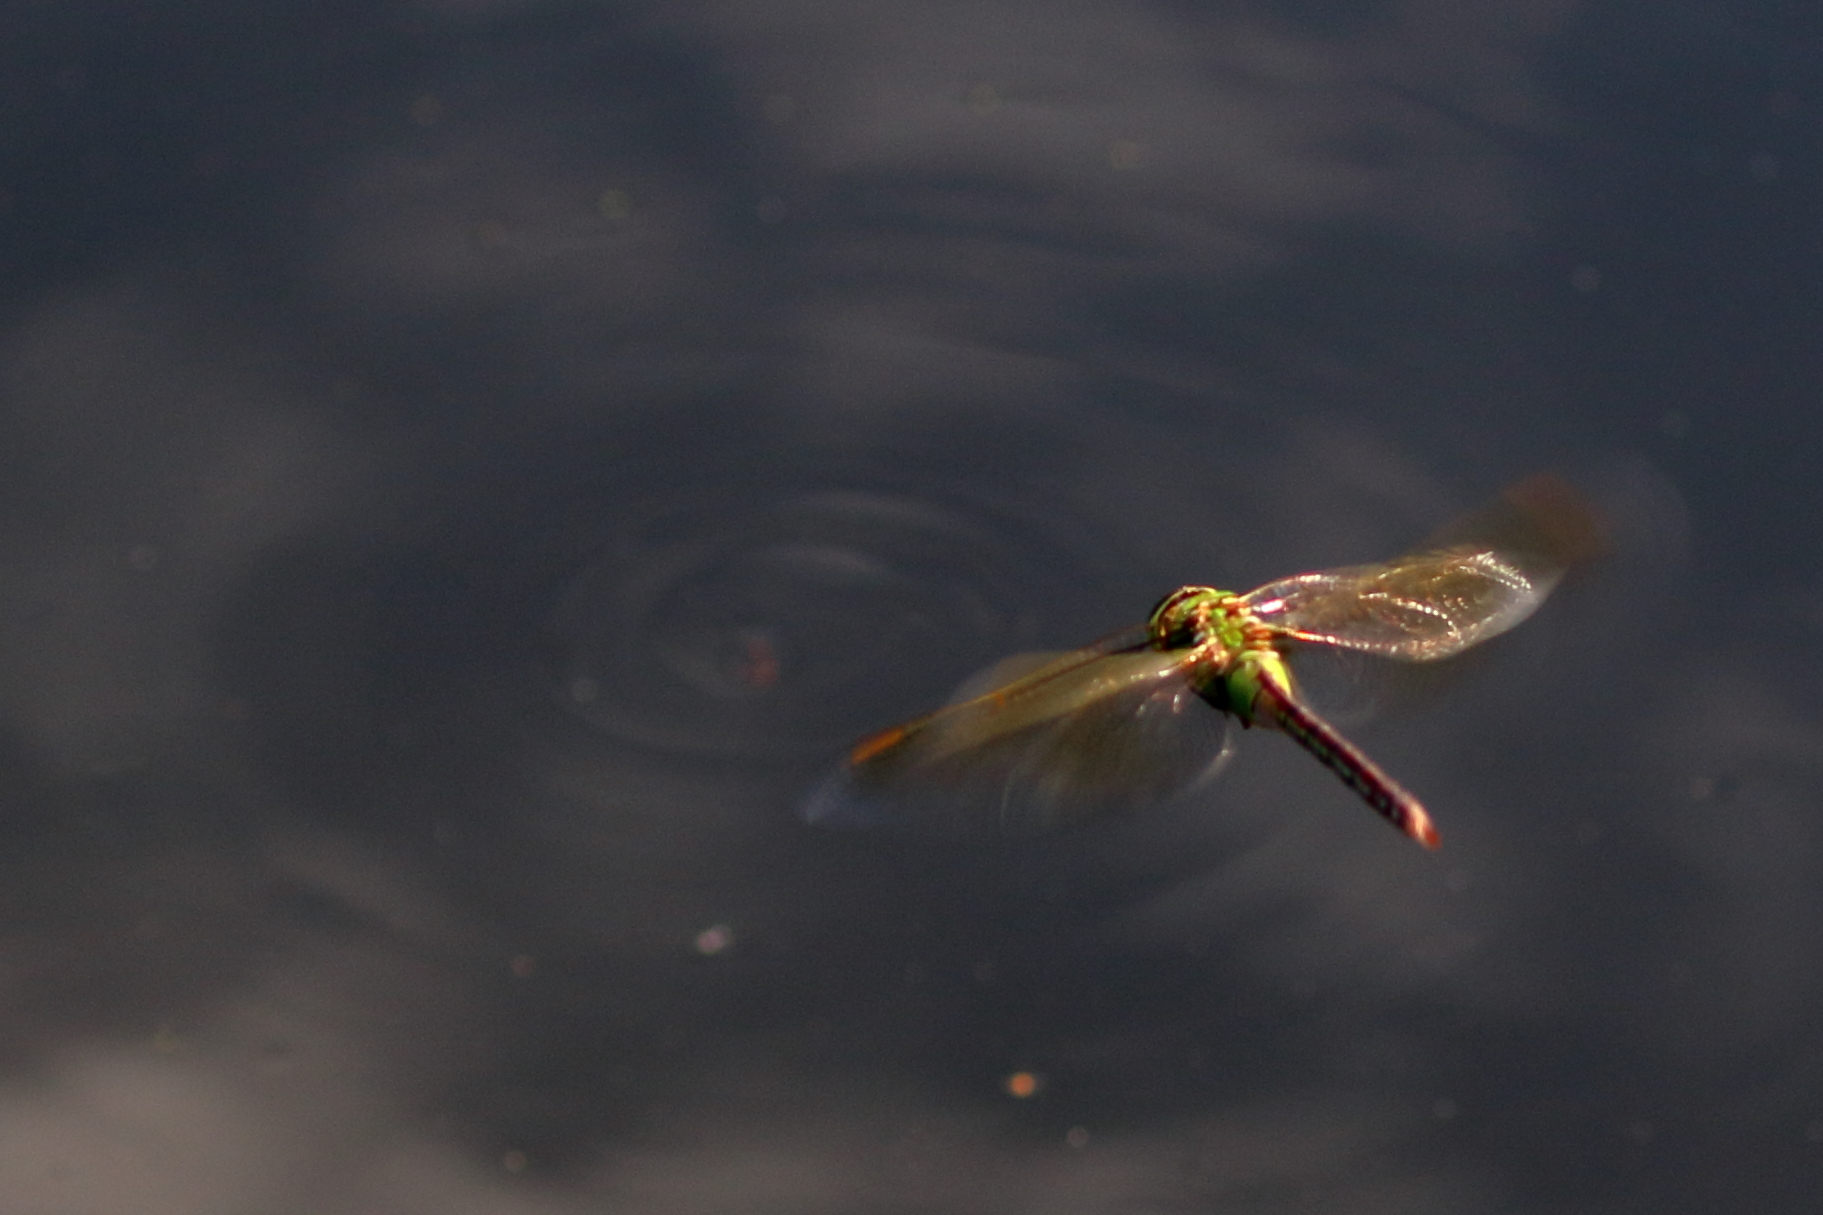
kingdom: Animalia
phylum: Arthropoda
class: Insecta
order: Odonata
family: Aeshnidae
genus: Anax
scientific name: Anax junius
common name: Common green darner
